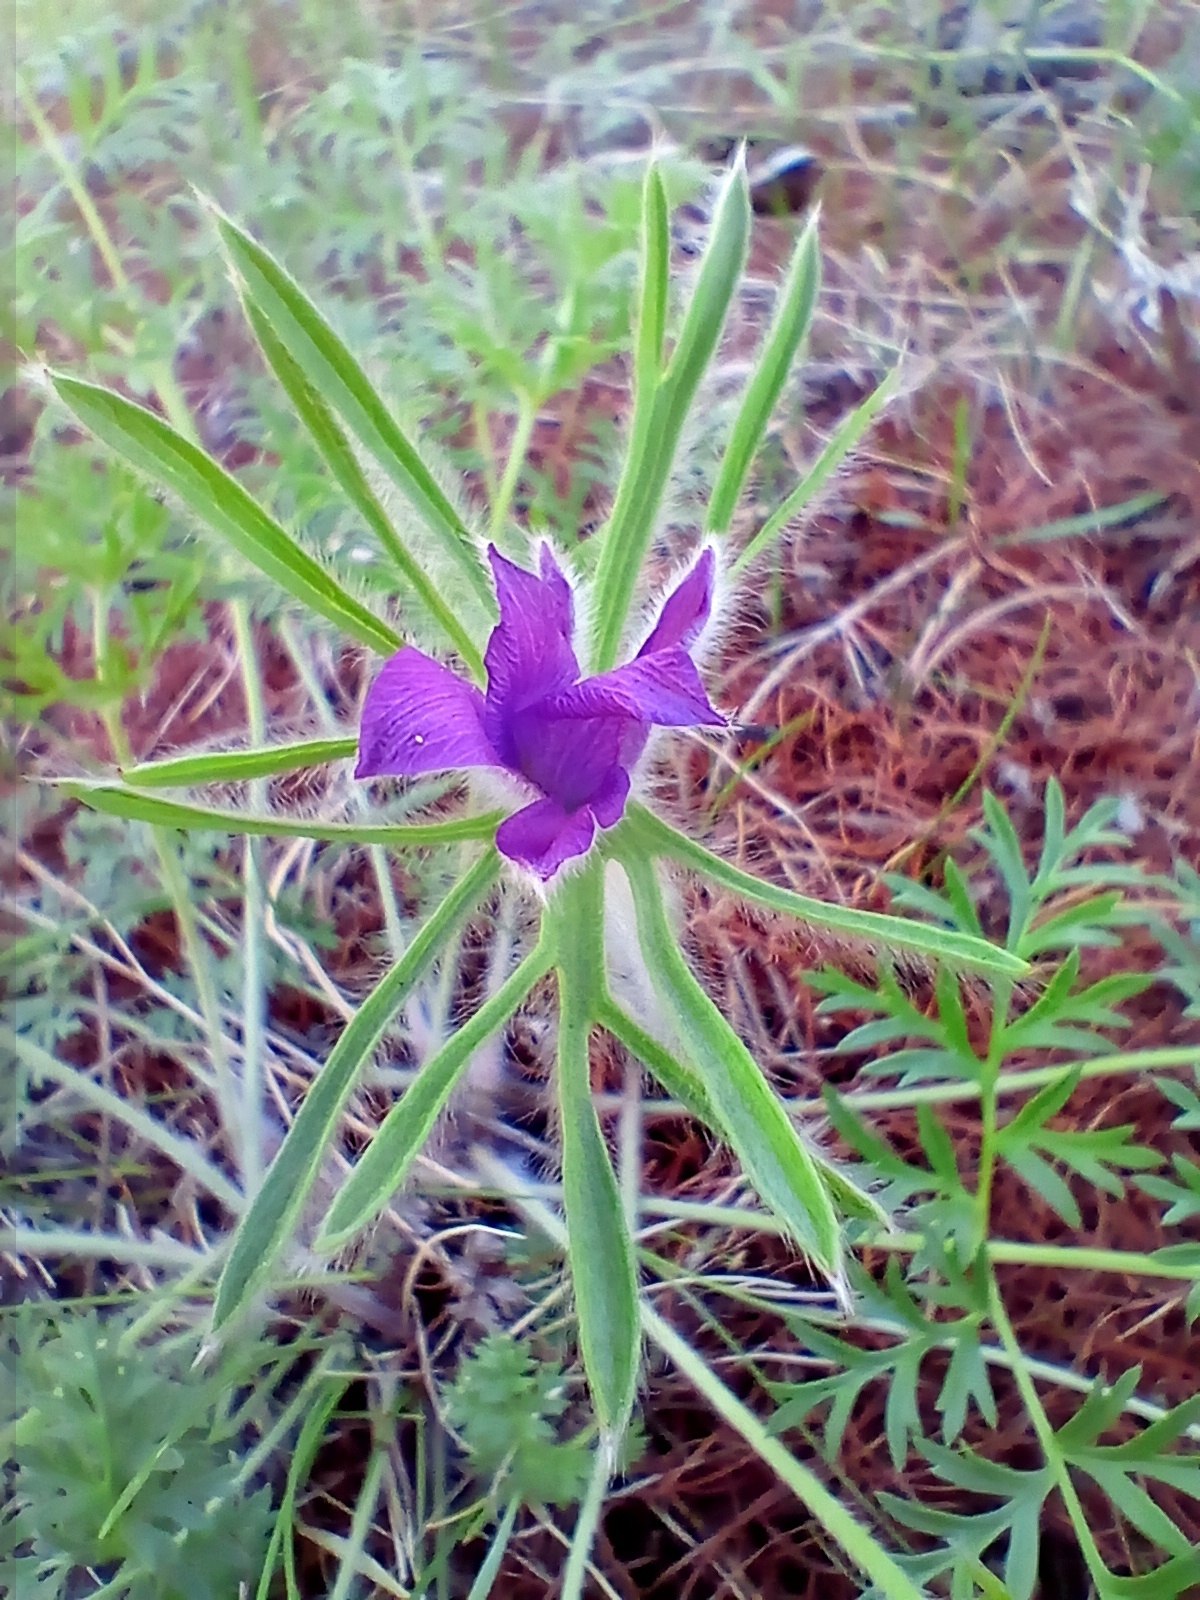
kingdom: Plantae
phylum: Tracheophyta
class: Magnoliopsida
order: Ranunculales
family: Ranunculaceae
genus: Pulsatilla
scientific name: Pulsatilla turczaninovii
